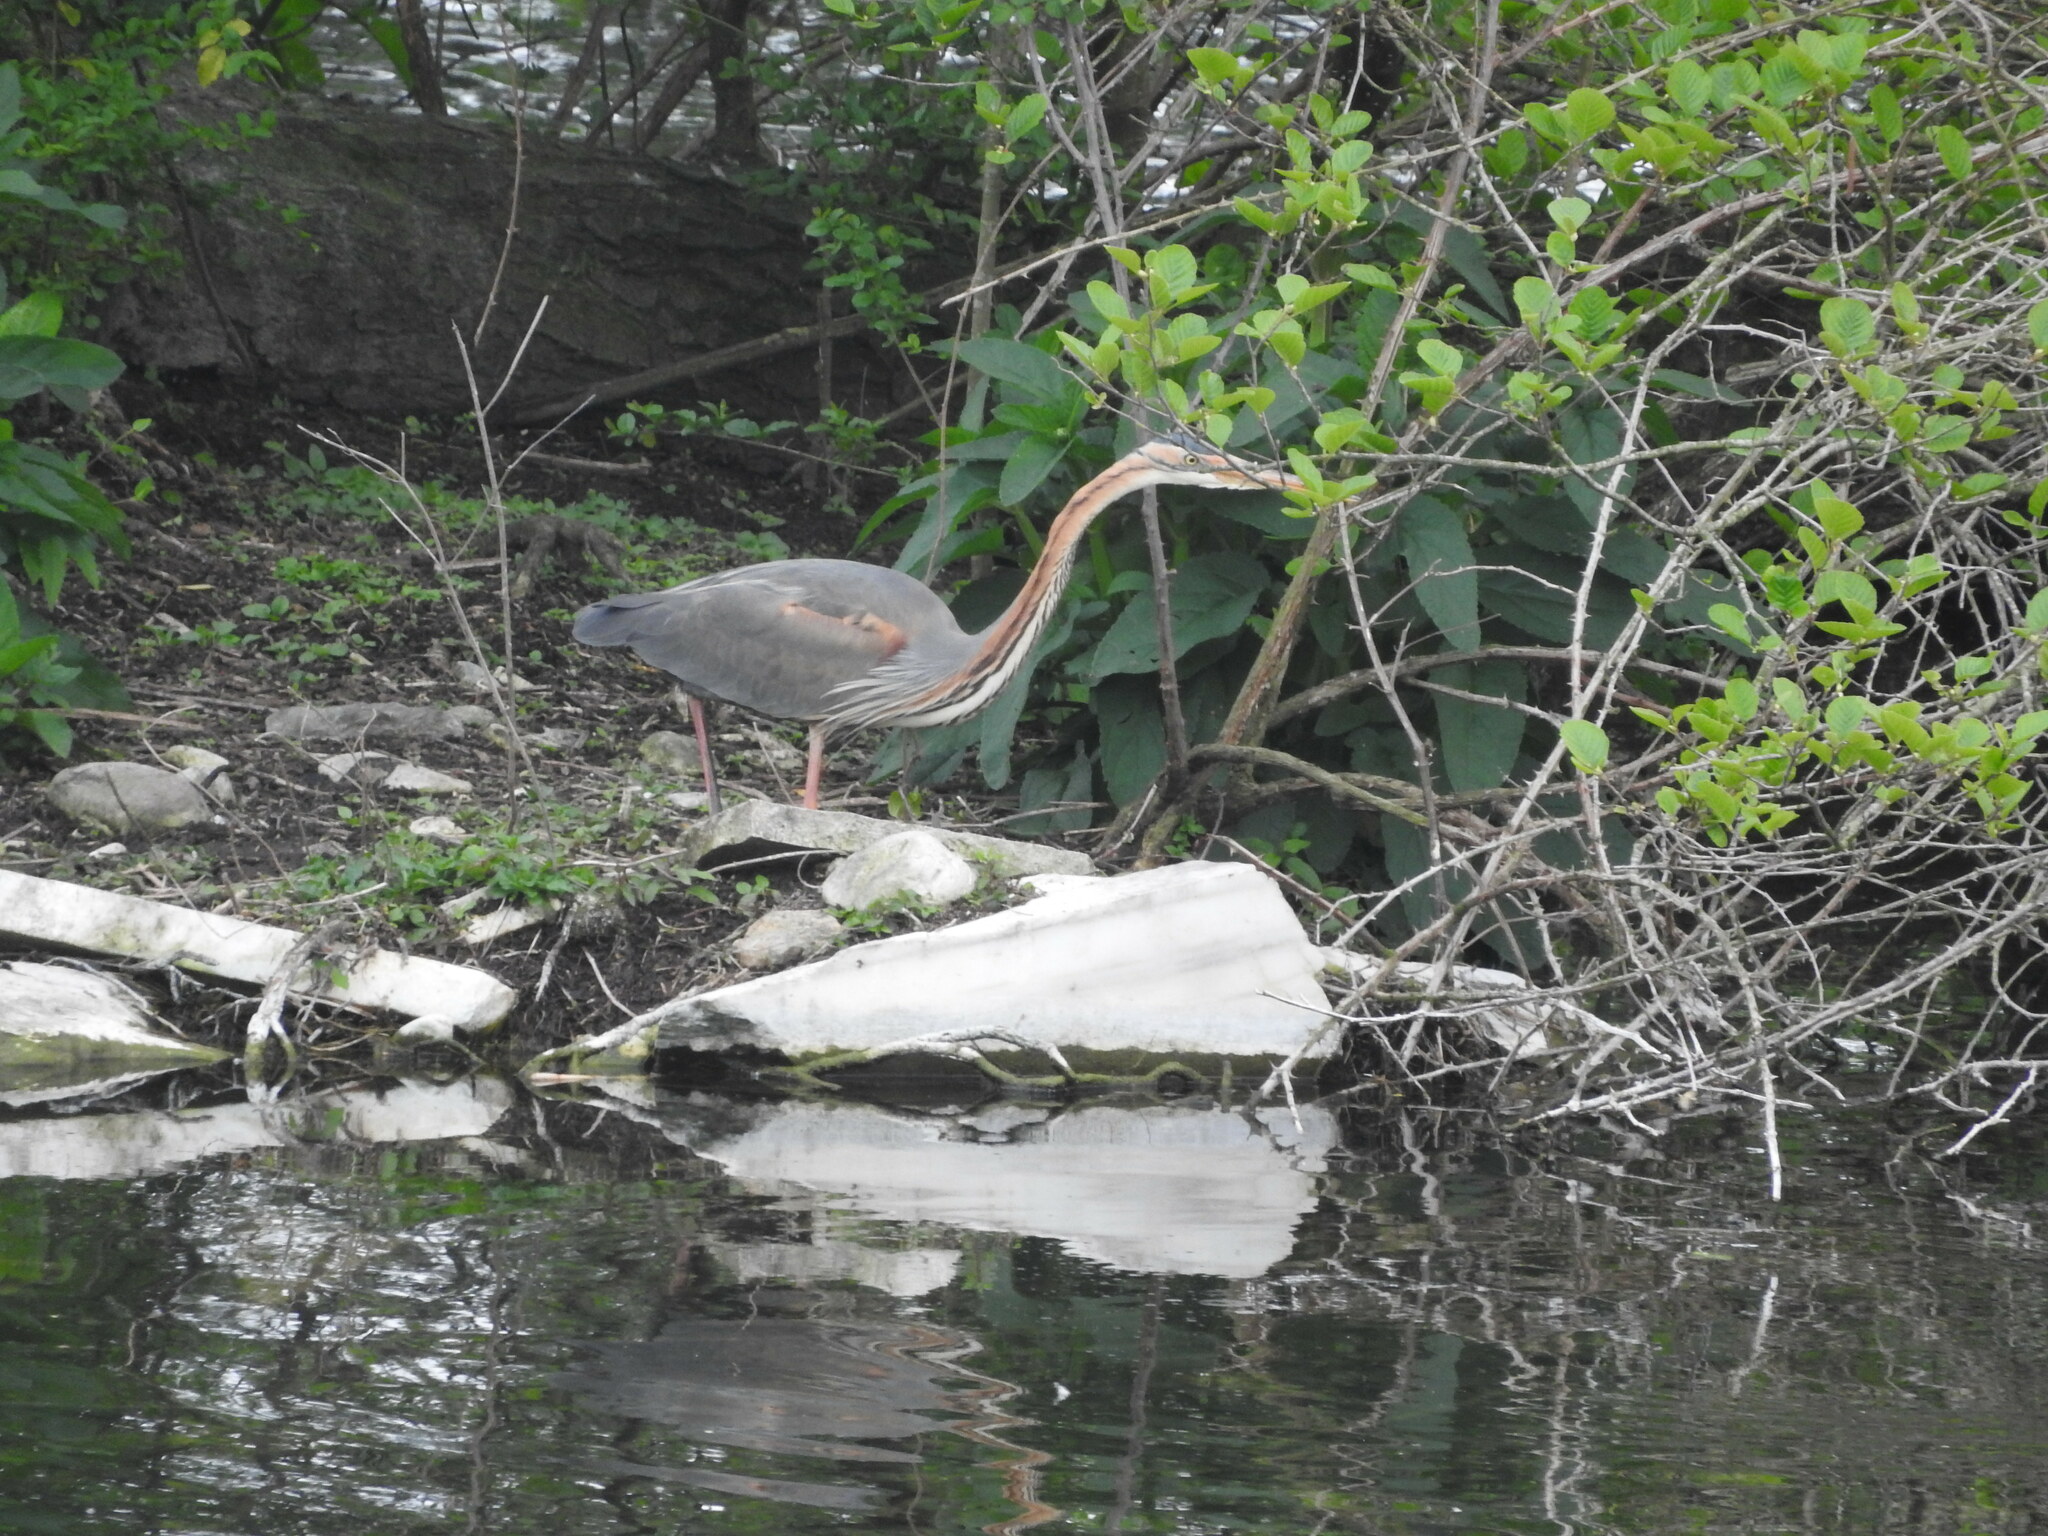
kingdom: Animalia
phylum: Chordata
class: Aves
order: Pelecaniformes
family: Ardeidae
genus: Ardea
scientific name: Ardea purpurea
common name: Purple heron
